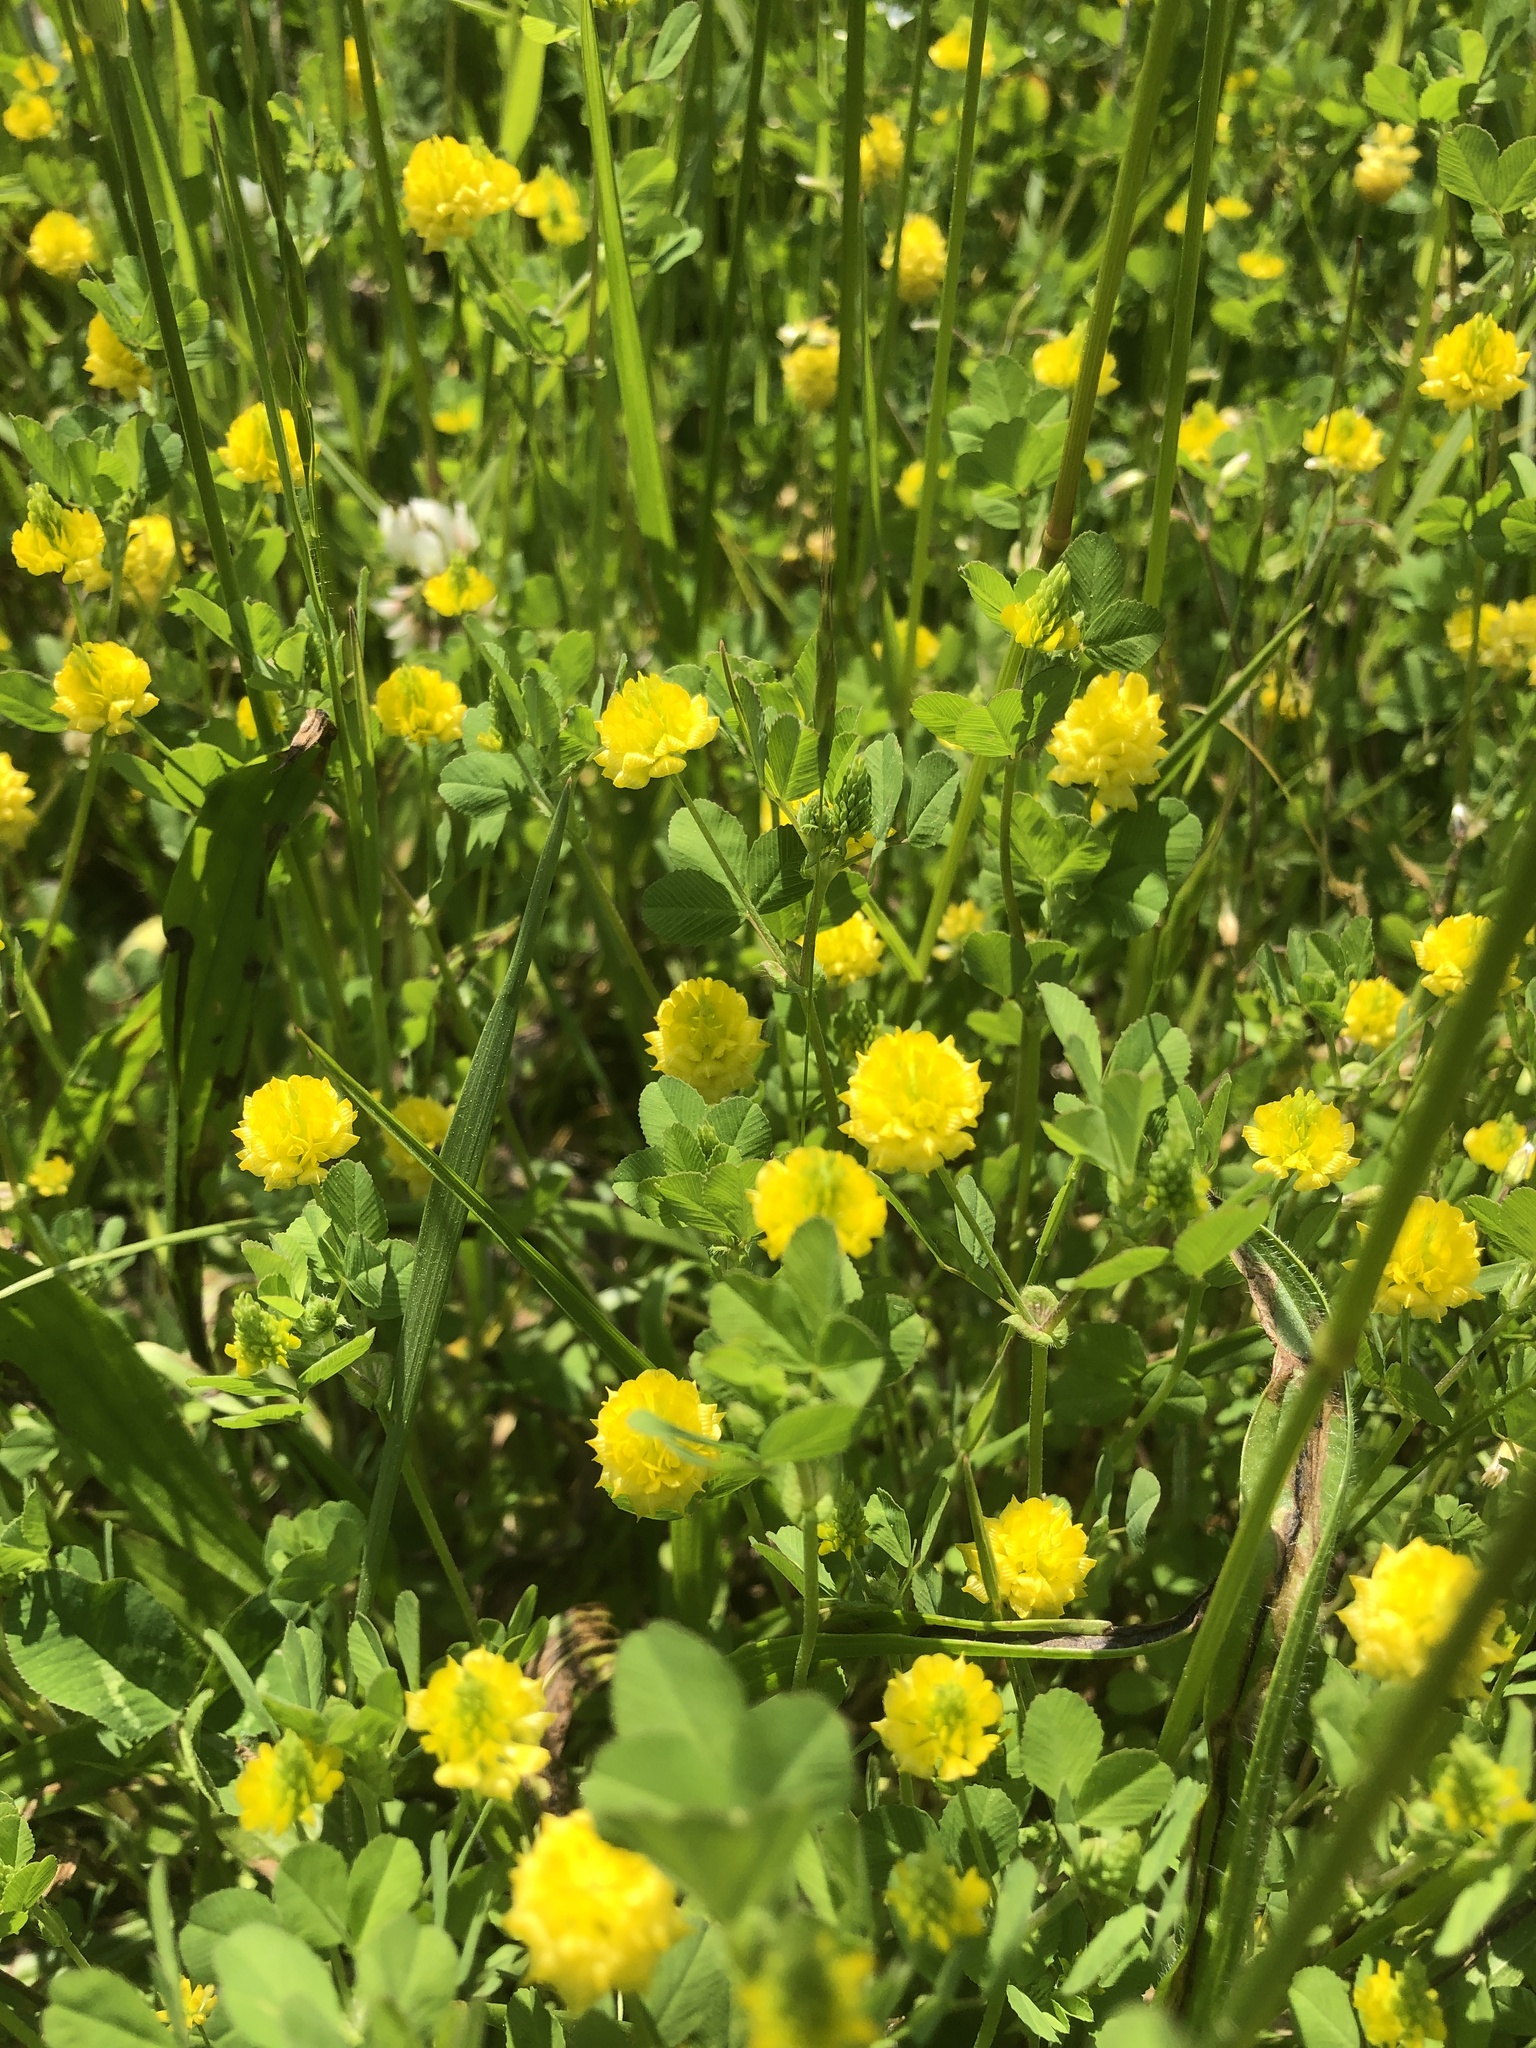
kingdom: Plantae
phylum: Tracheophyta
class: Magnoliopsida
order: Fabales
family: Fabaceae
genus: Trifolium
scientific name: Trifolium campestre
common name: Field clover
